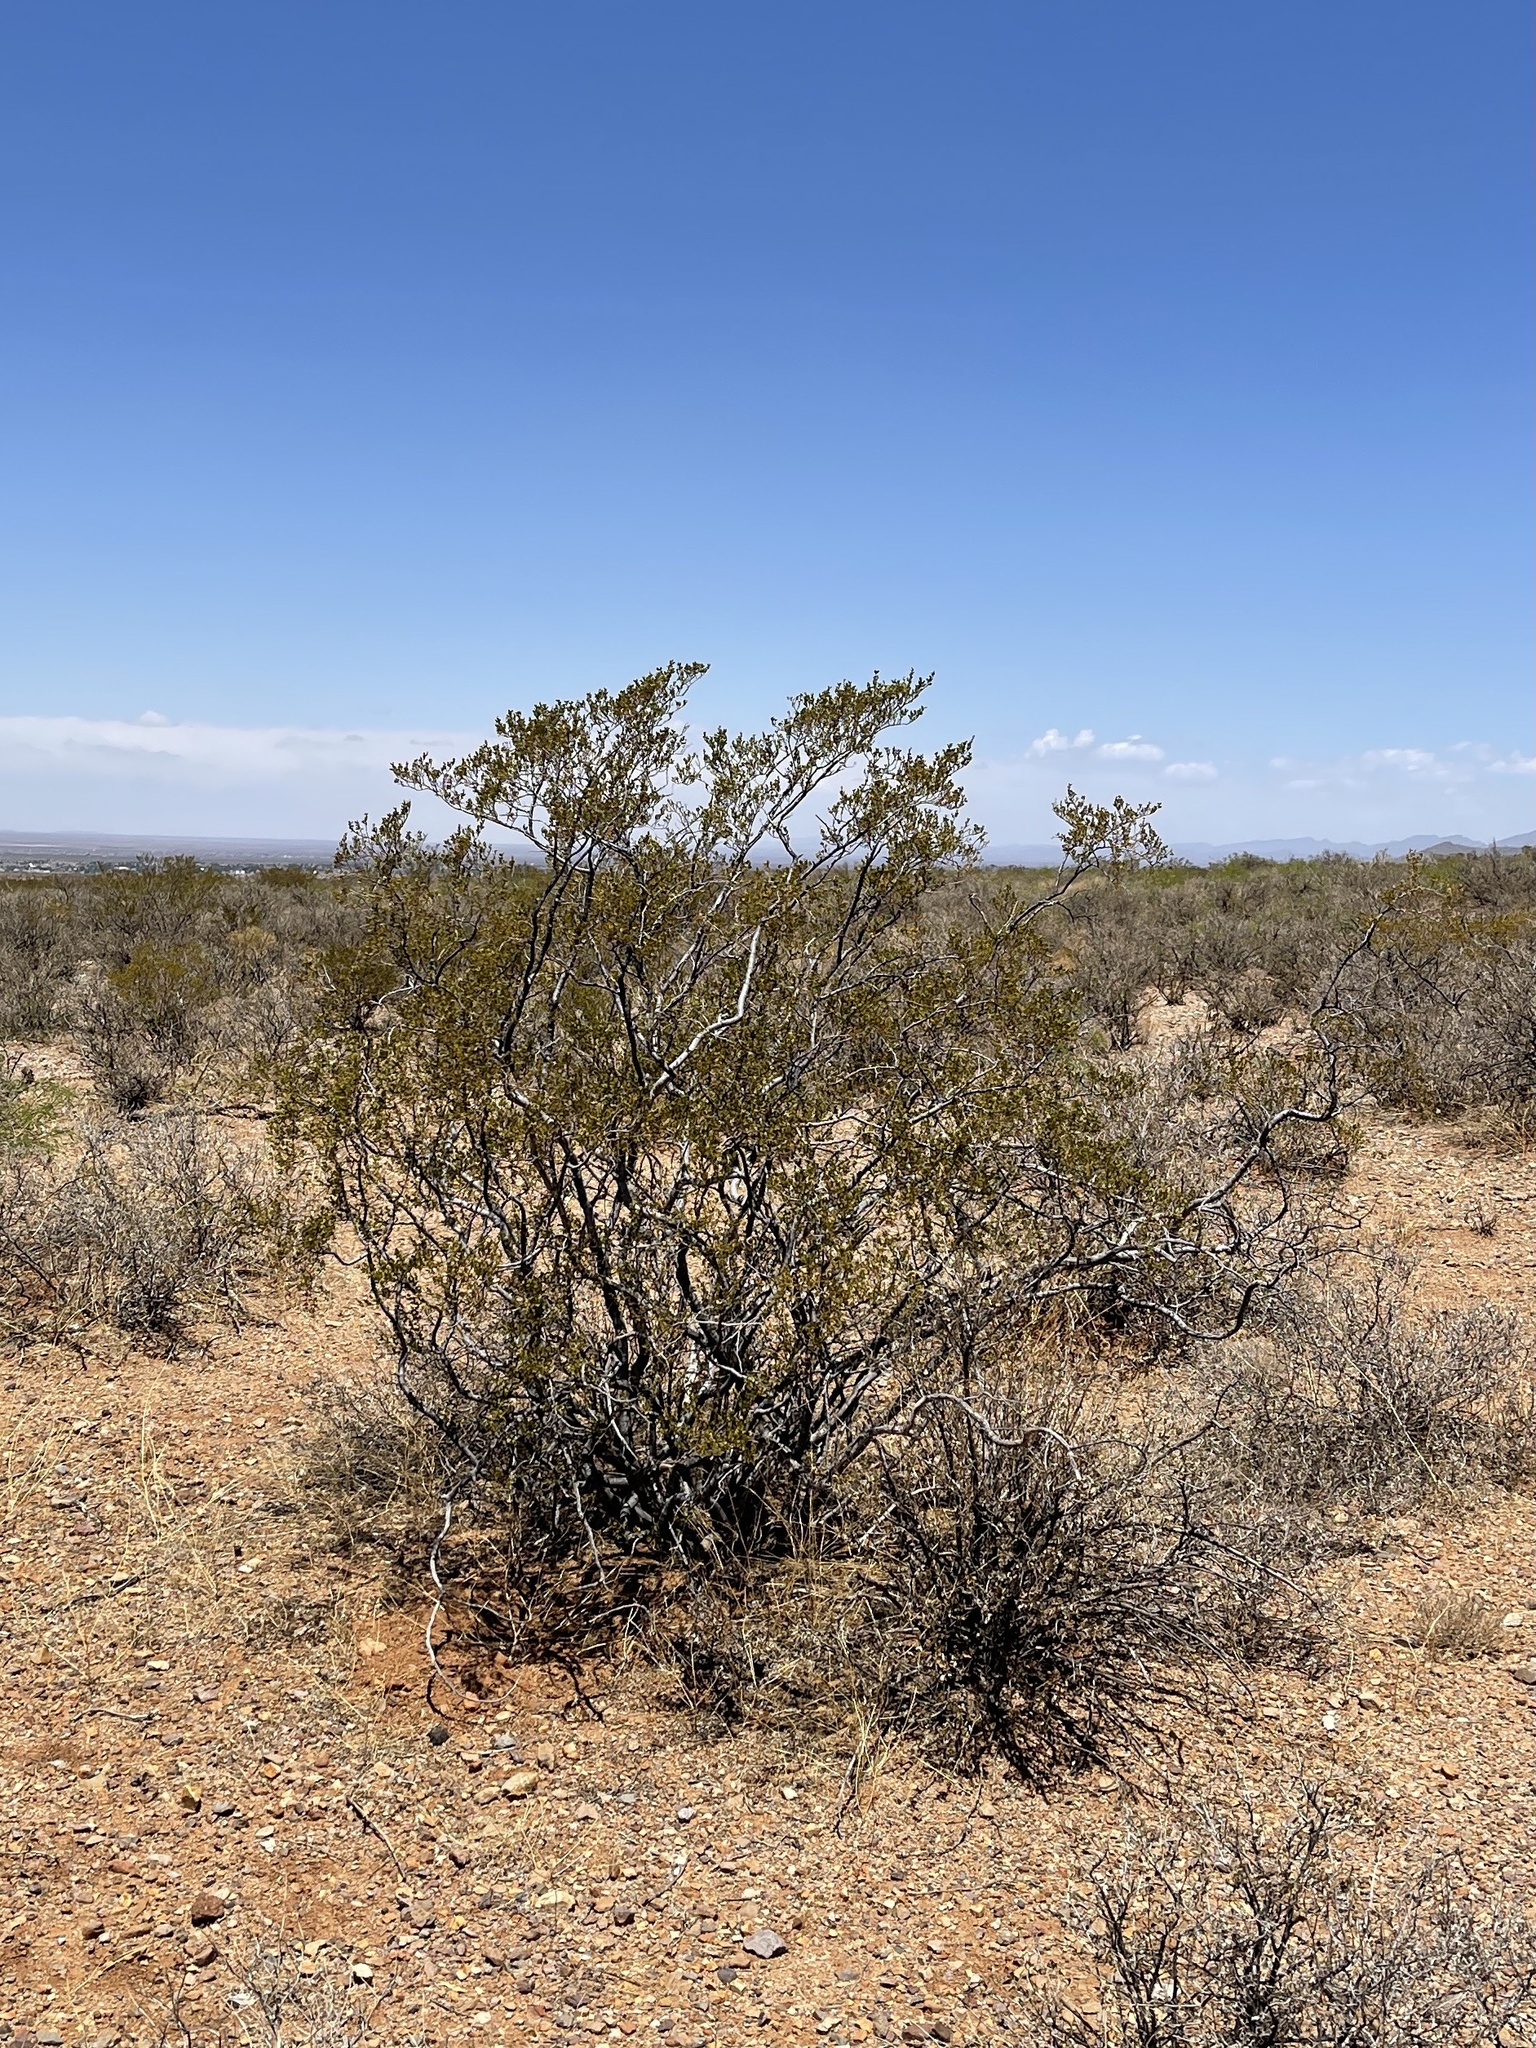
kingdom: Plantae
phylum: Tracheophyta
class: Magnoliopsida
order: Zygophyllales
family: Zygophyllaceae
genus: Larrea
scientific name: Larrea tridentata
